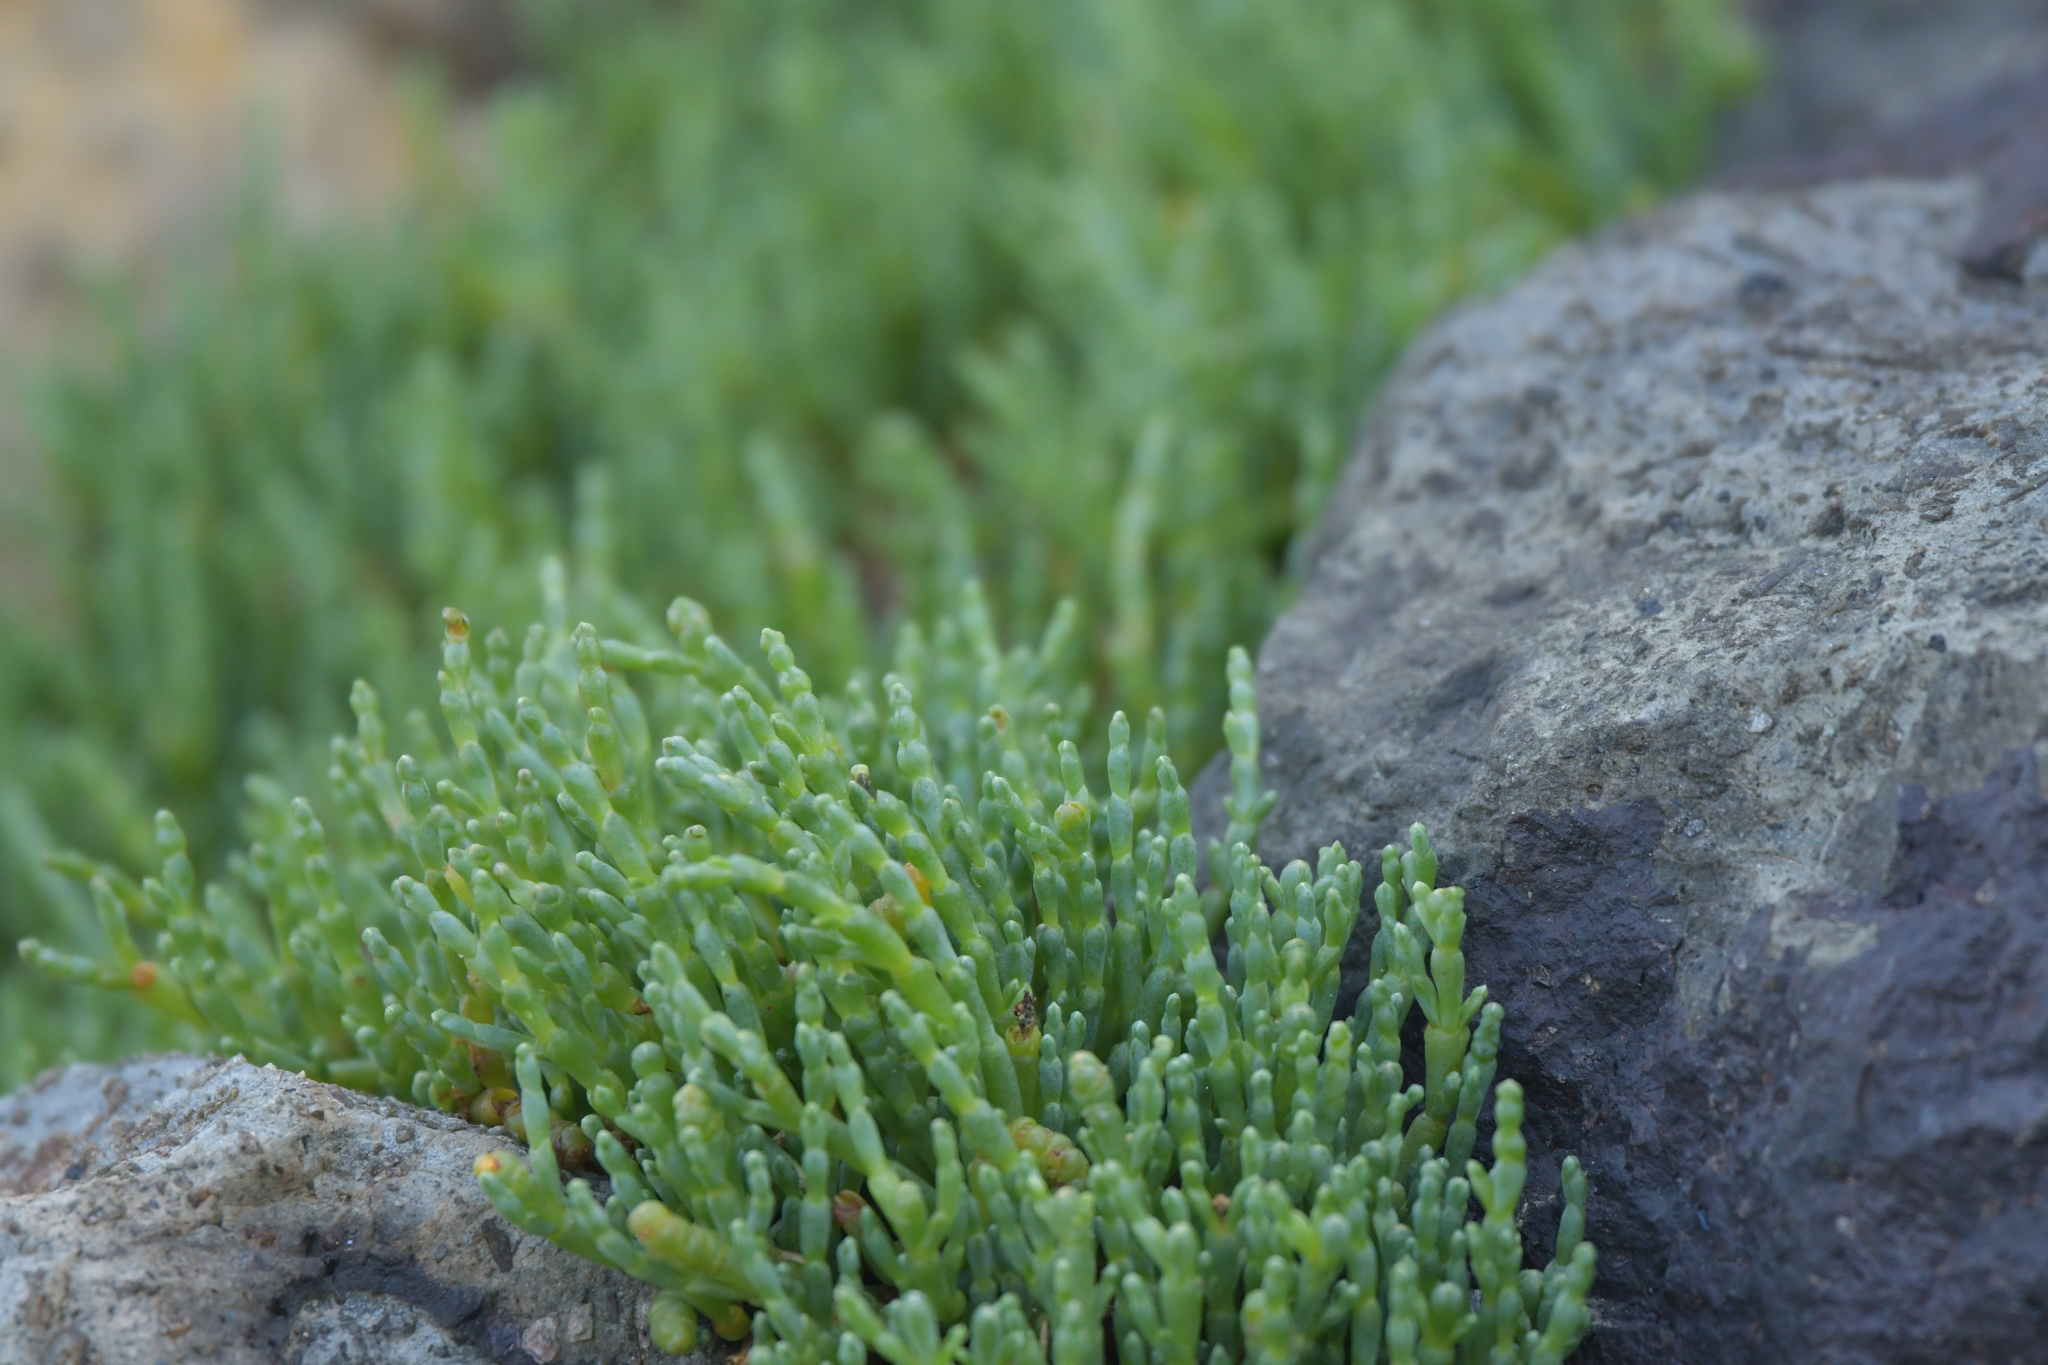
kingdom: Plantae
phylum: Tracheophyta
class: Magnoliopsida
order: Caryophyllales
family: Amaranthaceae
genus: Salicornia
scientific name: Salicornia quinqueflora
